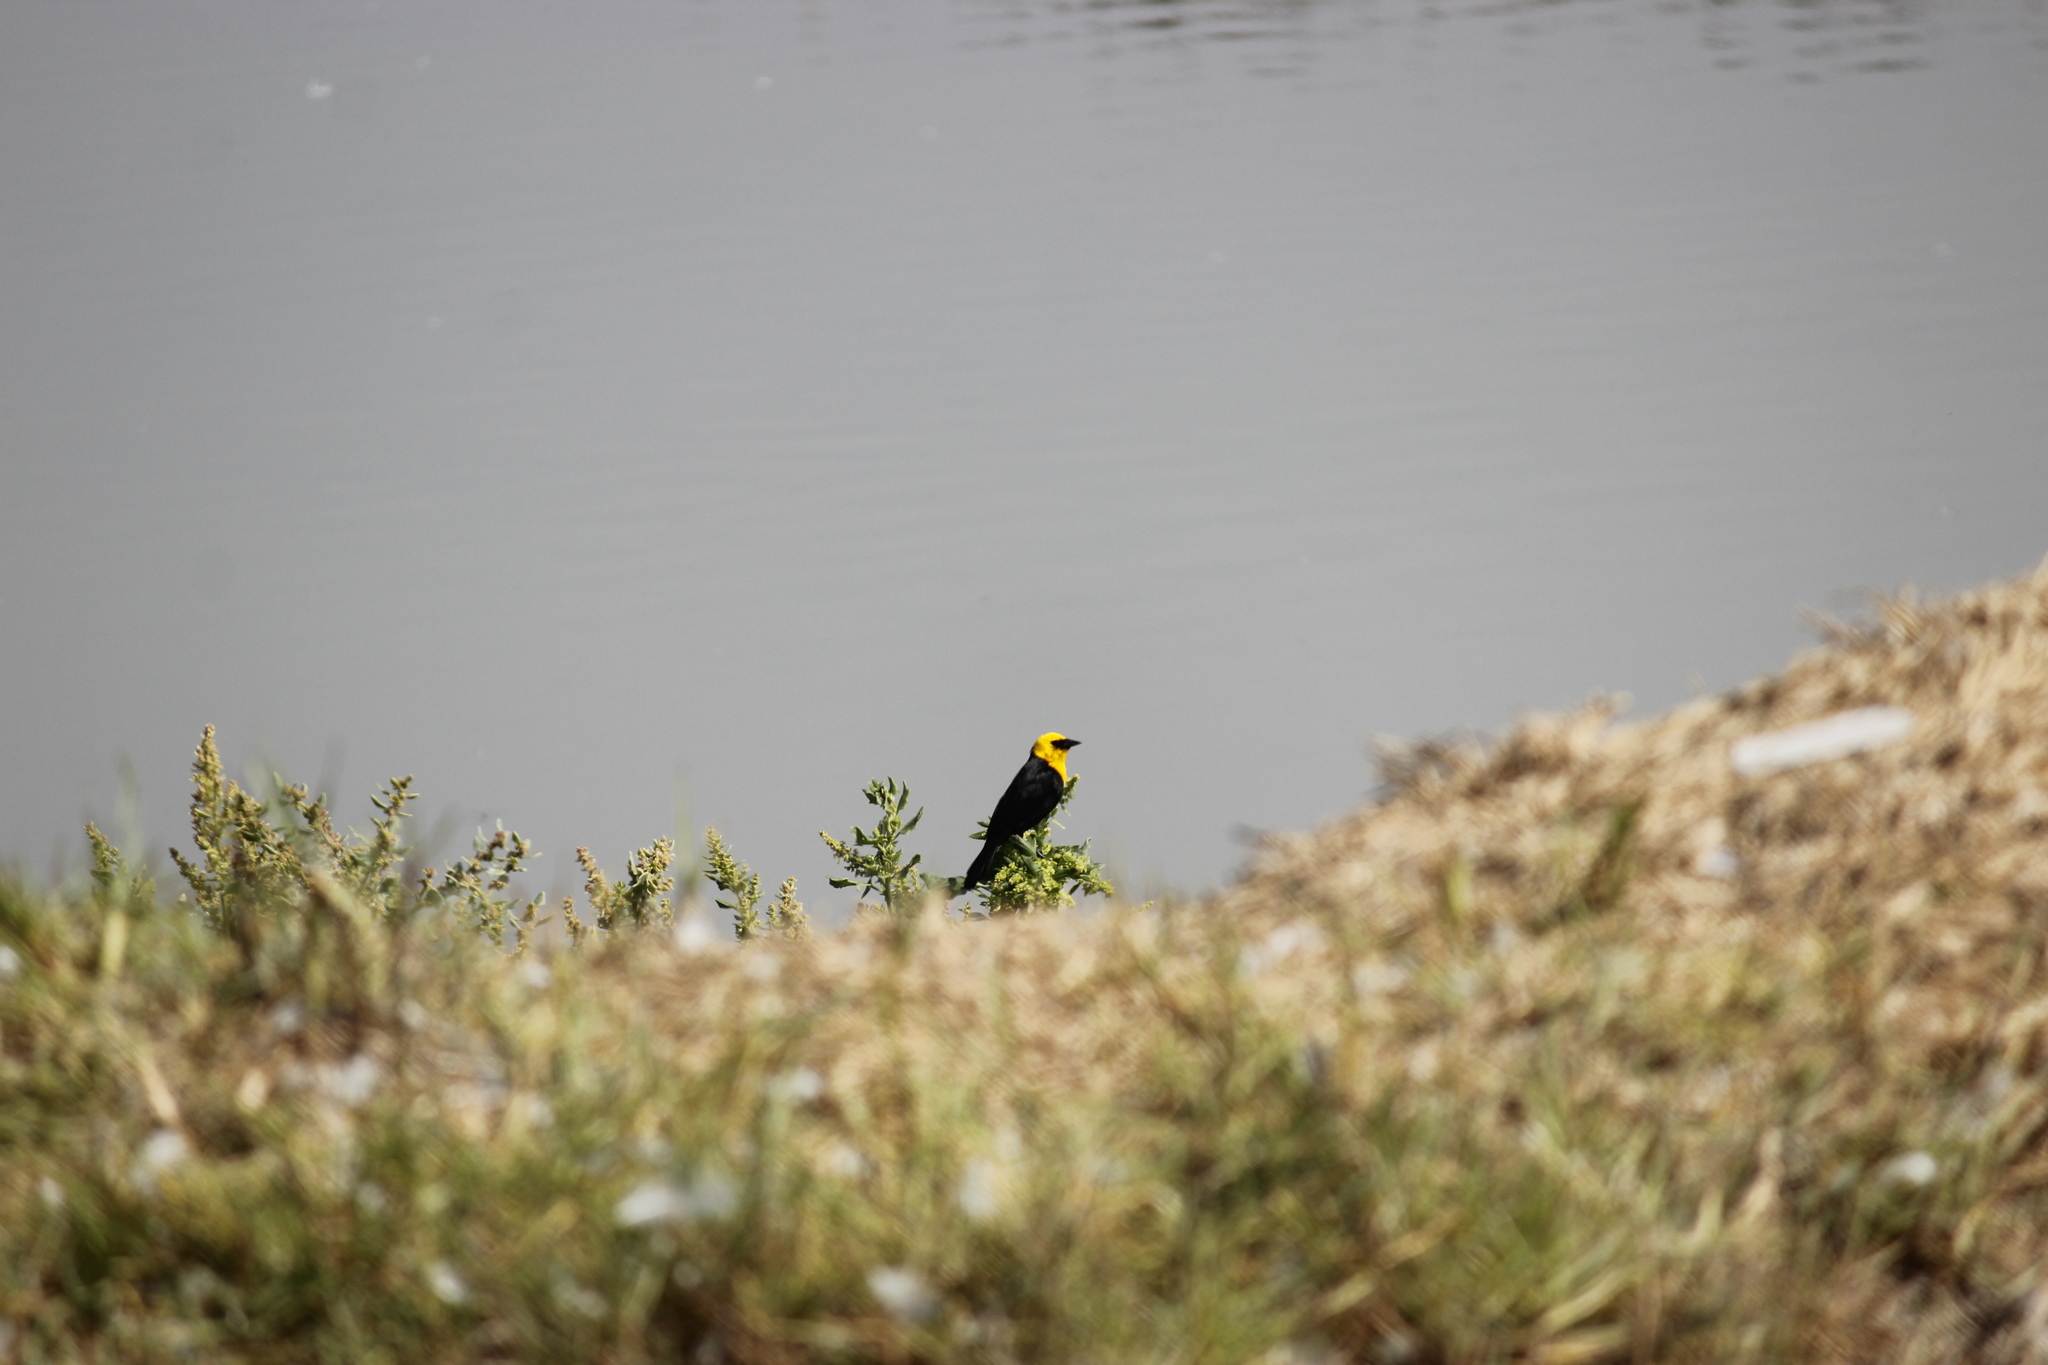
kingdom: Animalia
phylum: Chordata
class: Aves
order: Passeriformes
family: Icteridae
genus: Chrysomus
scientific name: Chrysomus icterocephalus
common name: Yellow-hooded blackbird
